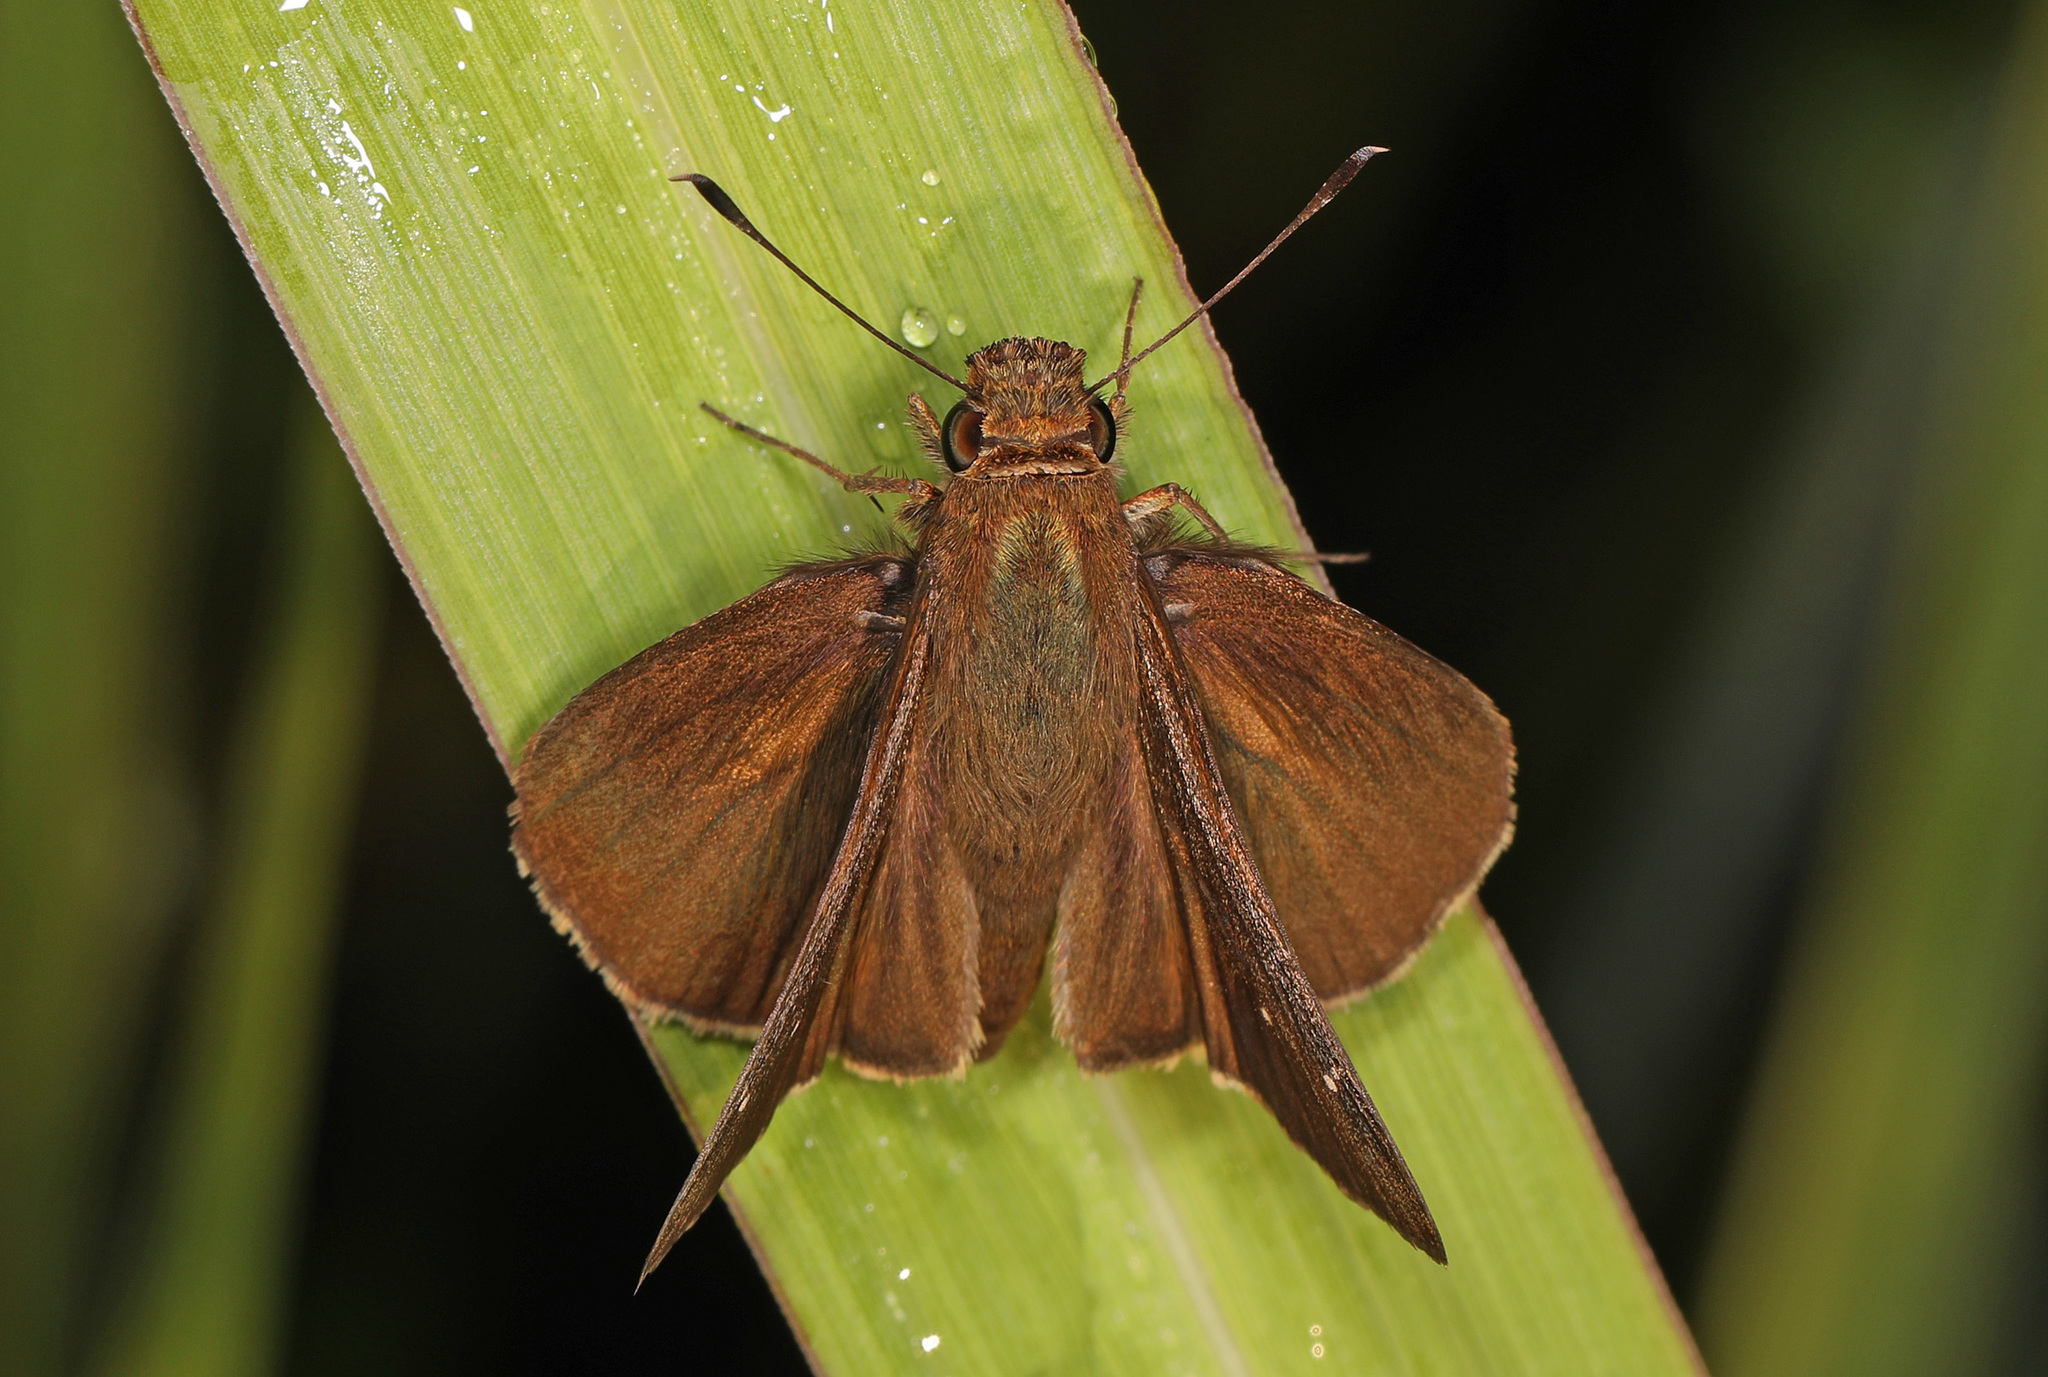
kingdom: Animalia
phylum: Arthropoda
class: Insecta
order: Lepidoptera
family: Hesperiidae
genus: Lerema
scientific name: Lerema accius
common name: Clouded skipper
